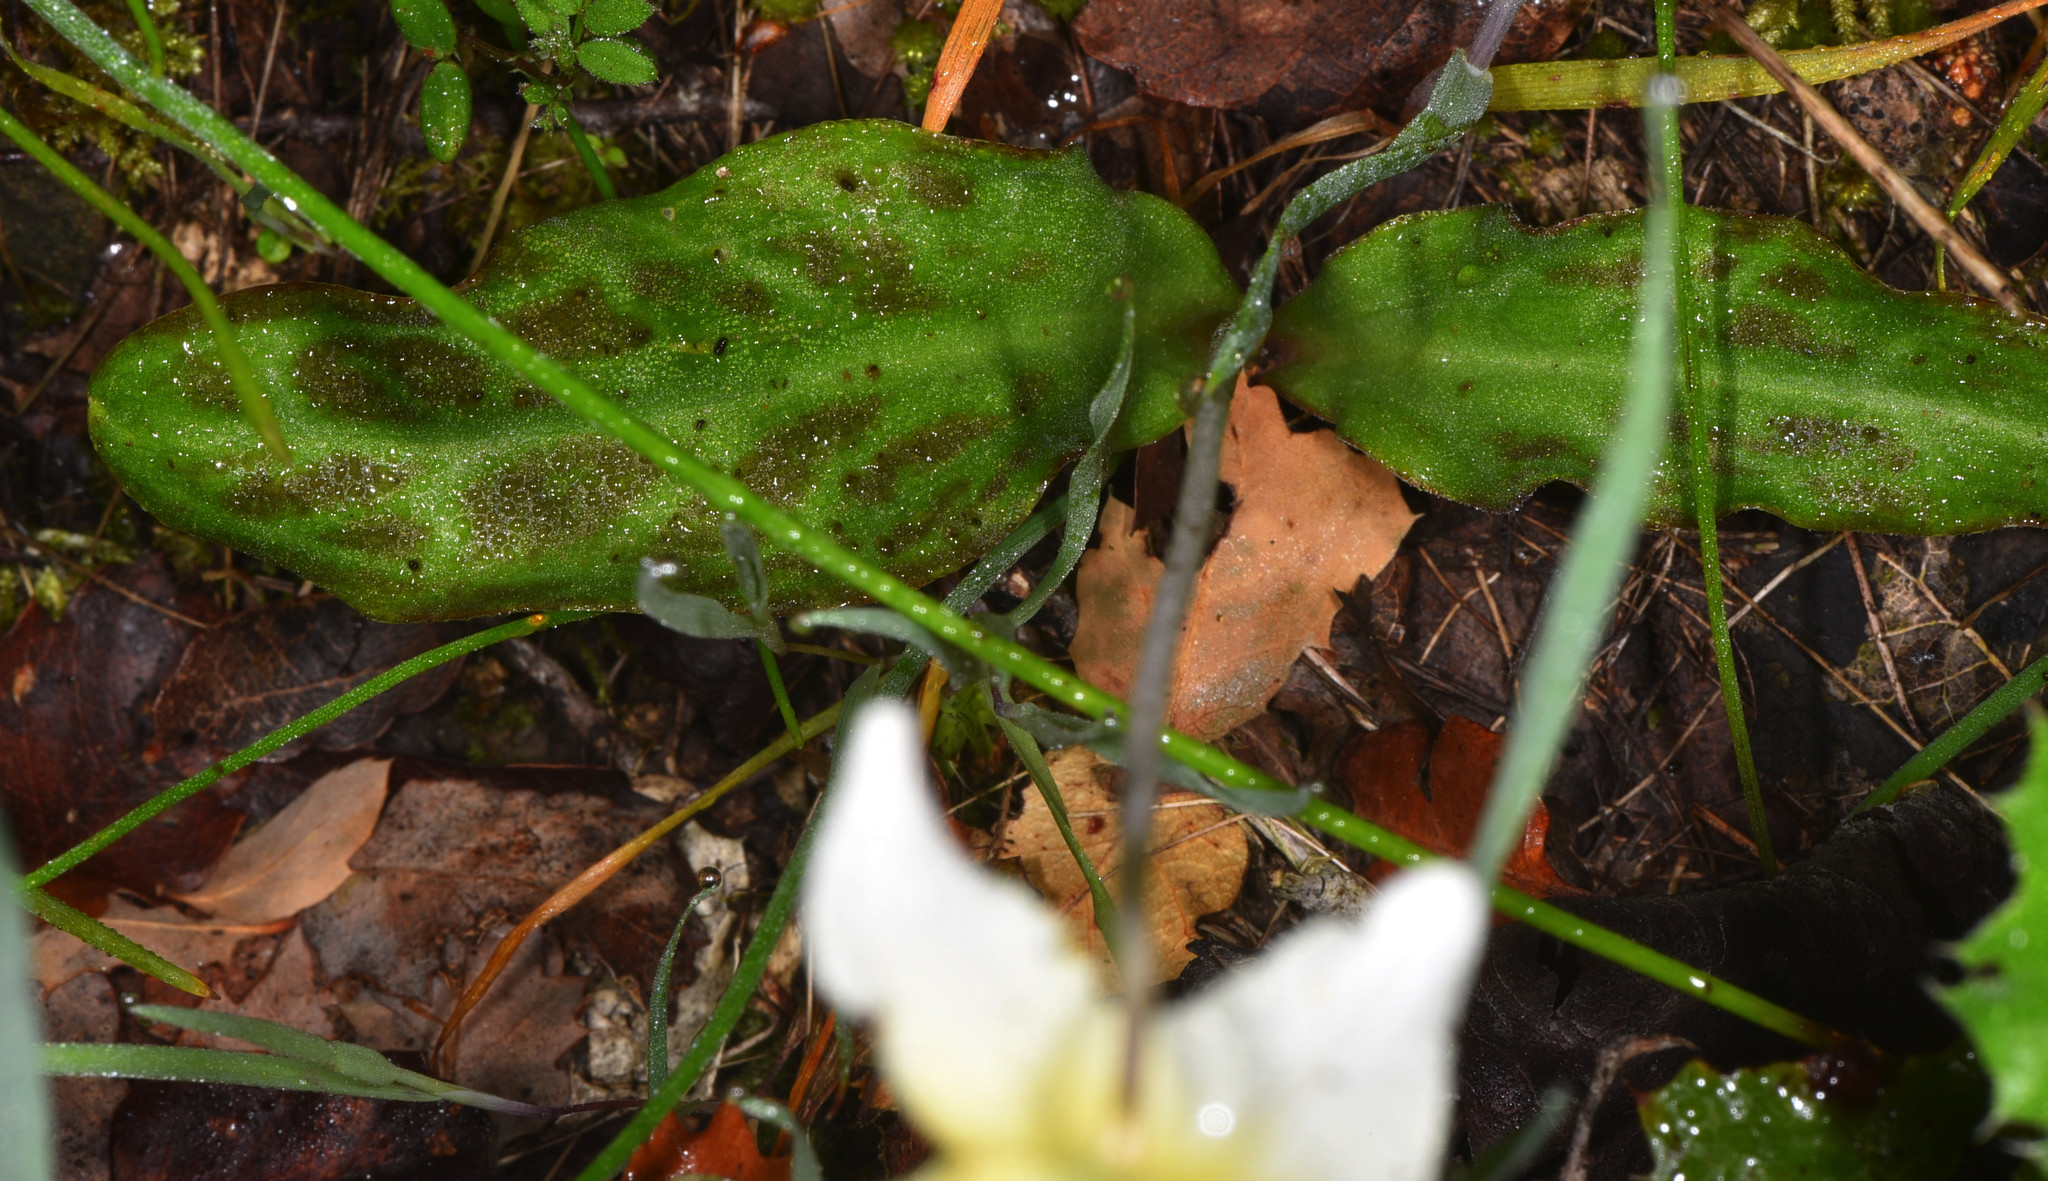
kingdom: Plantae
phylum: Tracheophyta
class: Liliopsida
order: Liliales
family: Liliaceae
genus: Erythronium
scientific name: Erythronium californicum
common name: Fawn-lily
